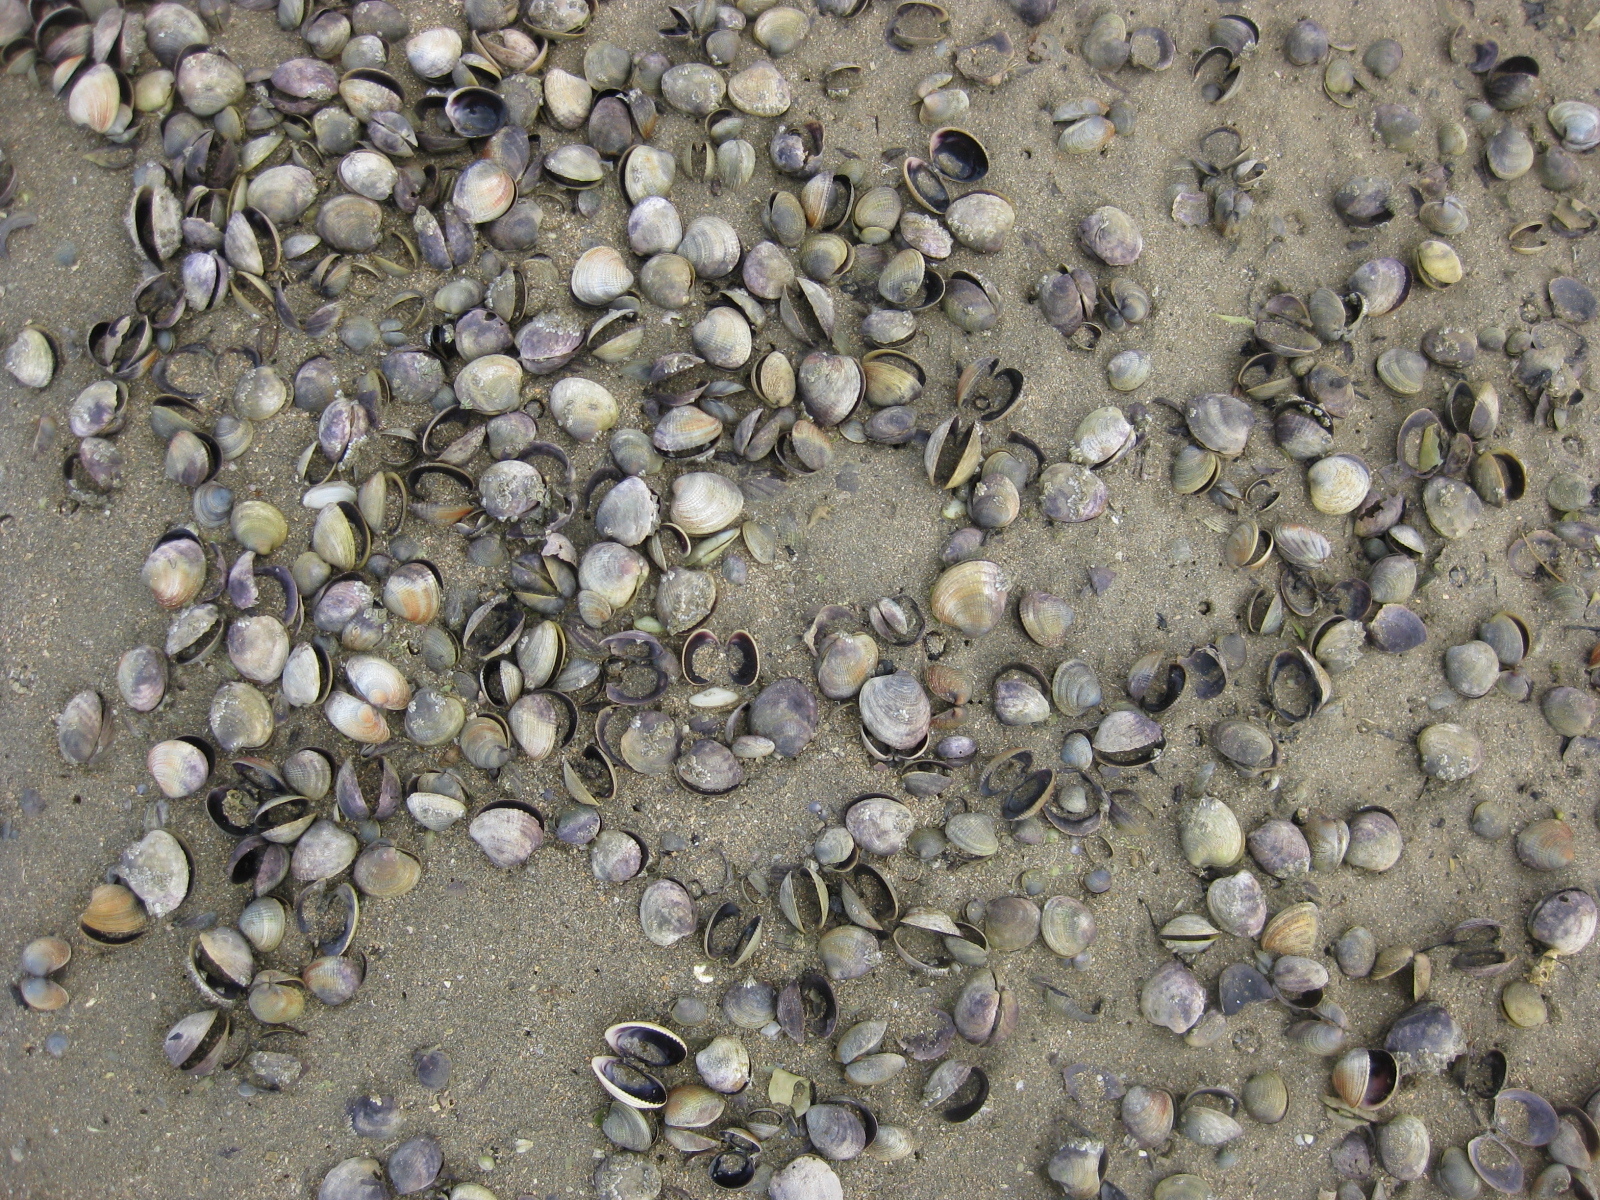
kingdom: Animalia
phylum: Mollusca
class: Bivalvia
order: Venerida
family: Veneridae
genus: Austrovenus
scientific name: Austrovenus stutchburyi
